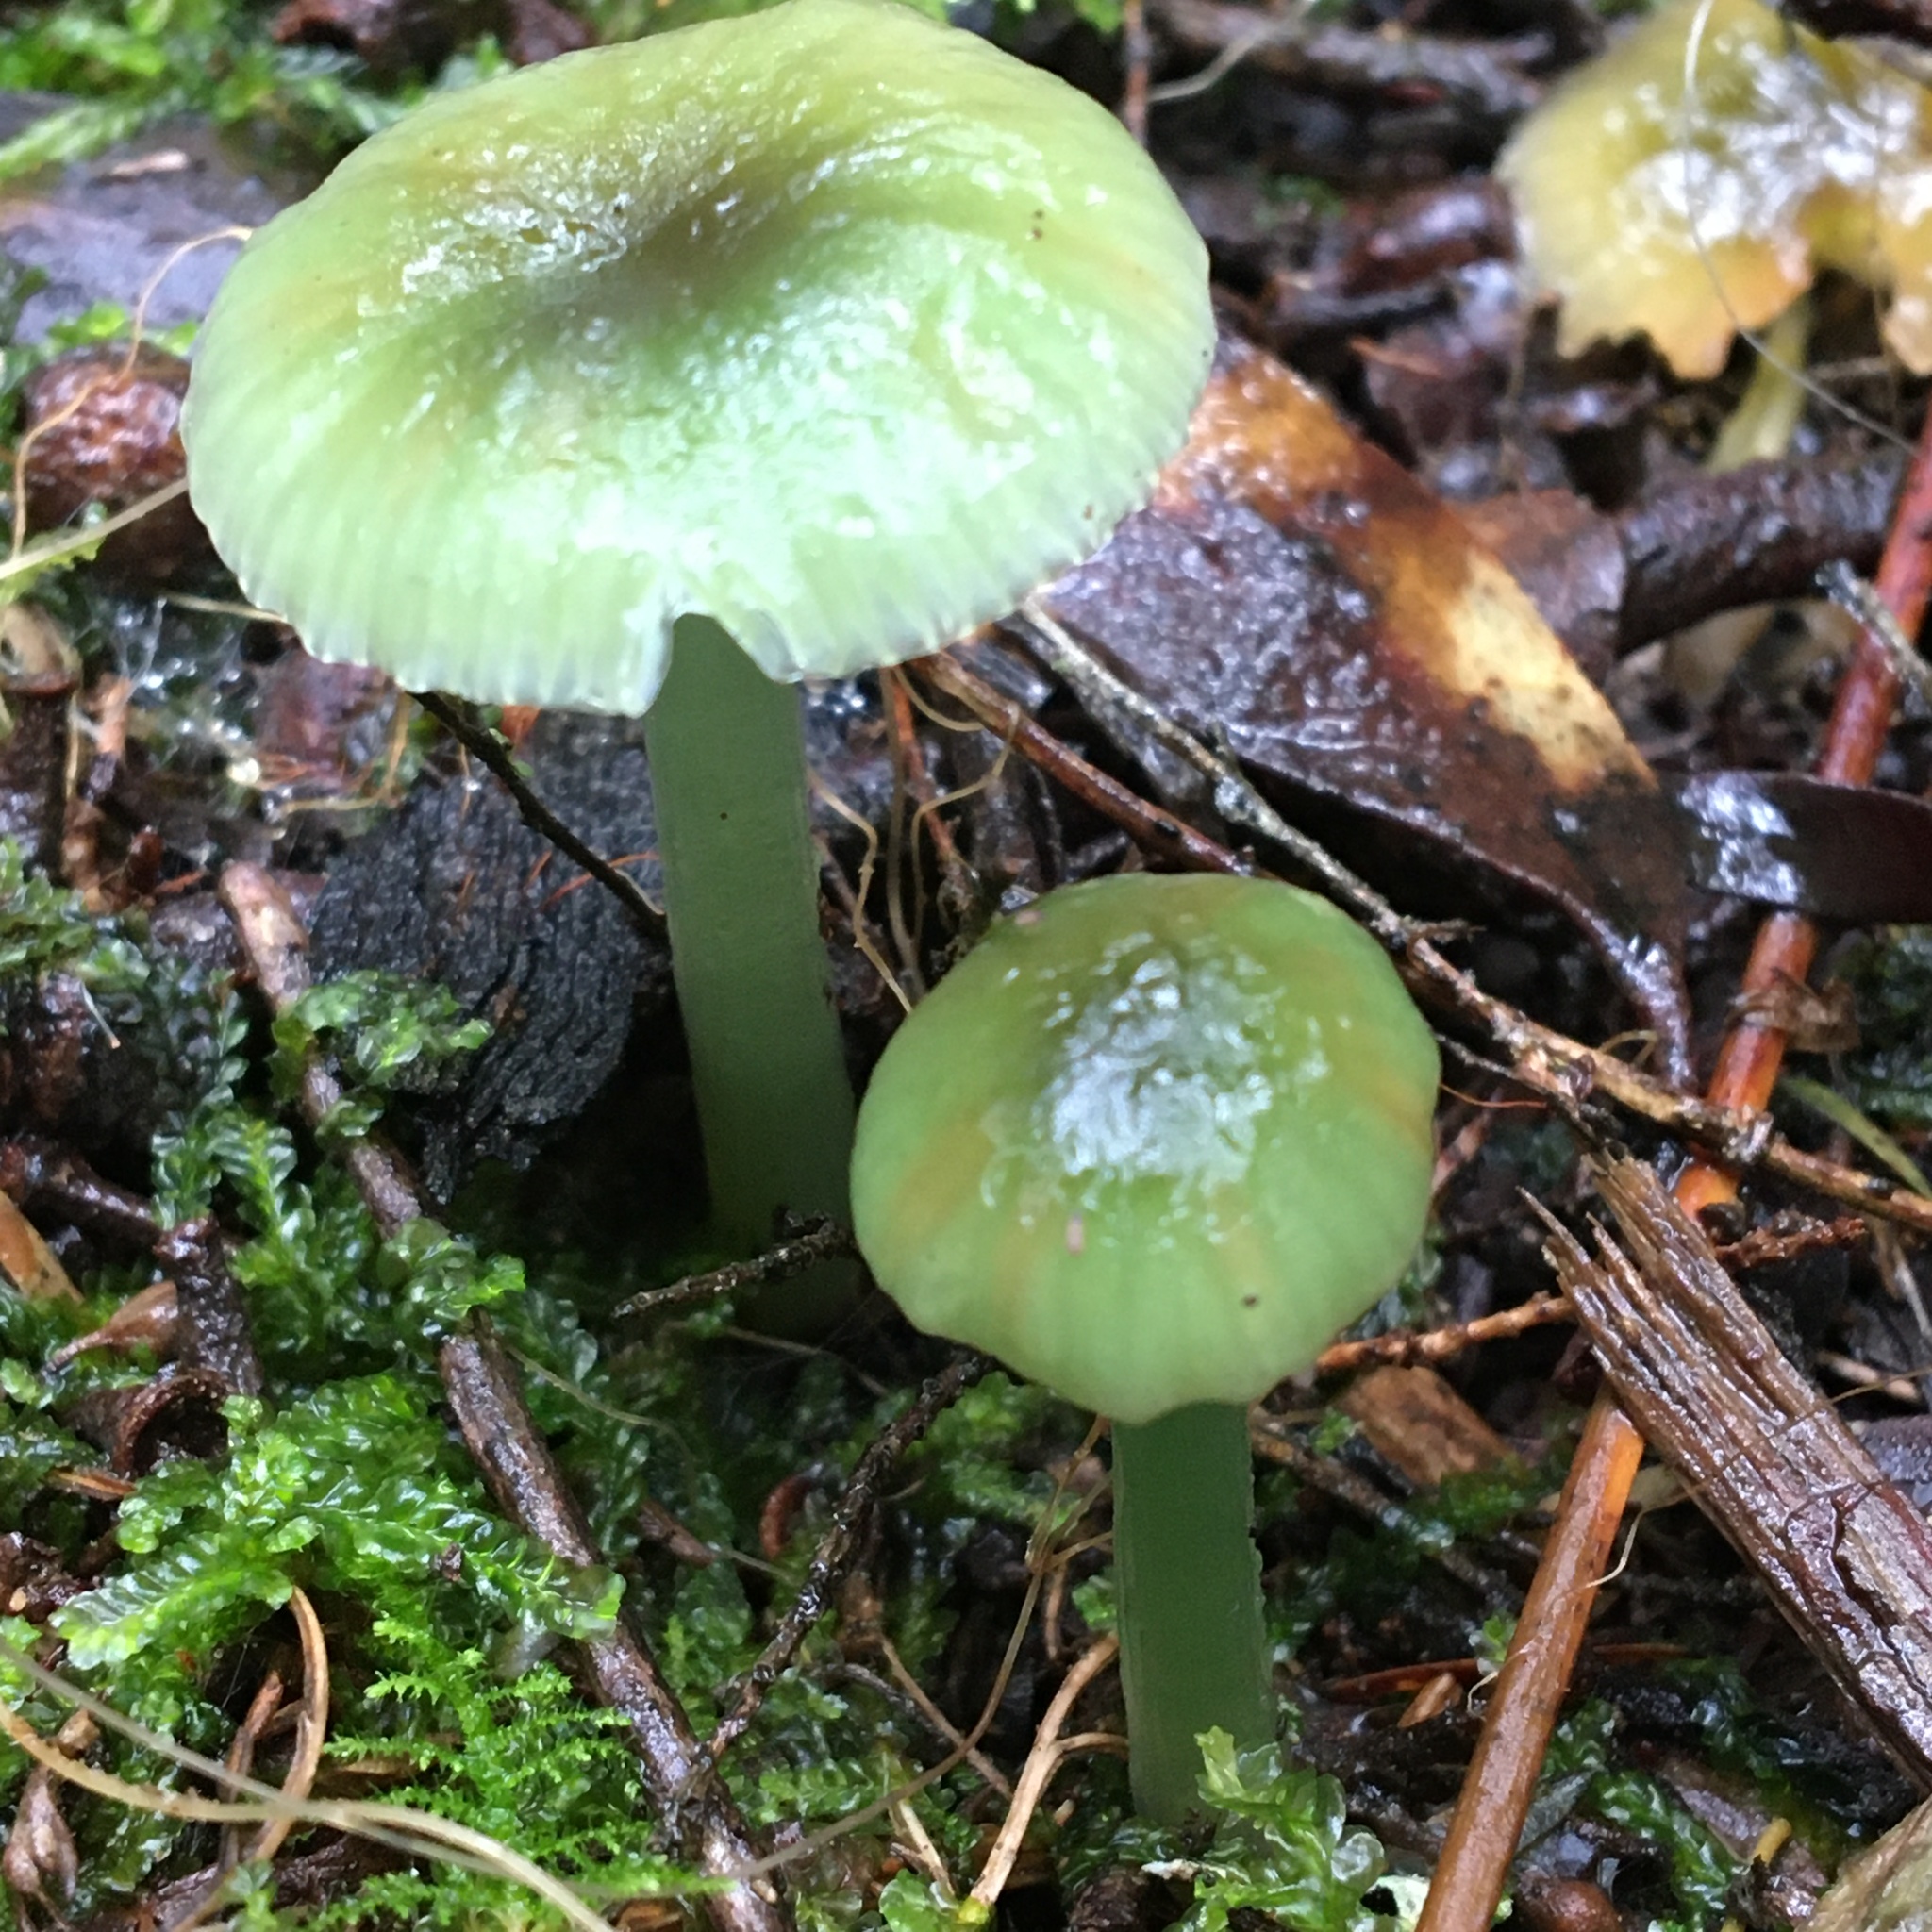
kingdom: Fungi
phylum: Basidiomycota
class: Agaricomycetes
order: Agaricales
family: Hygrophoraceae
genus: Gliophorus
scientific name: Gliophorus graminicolor
